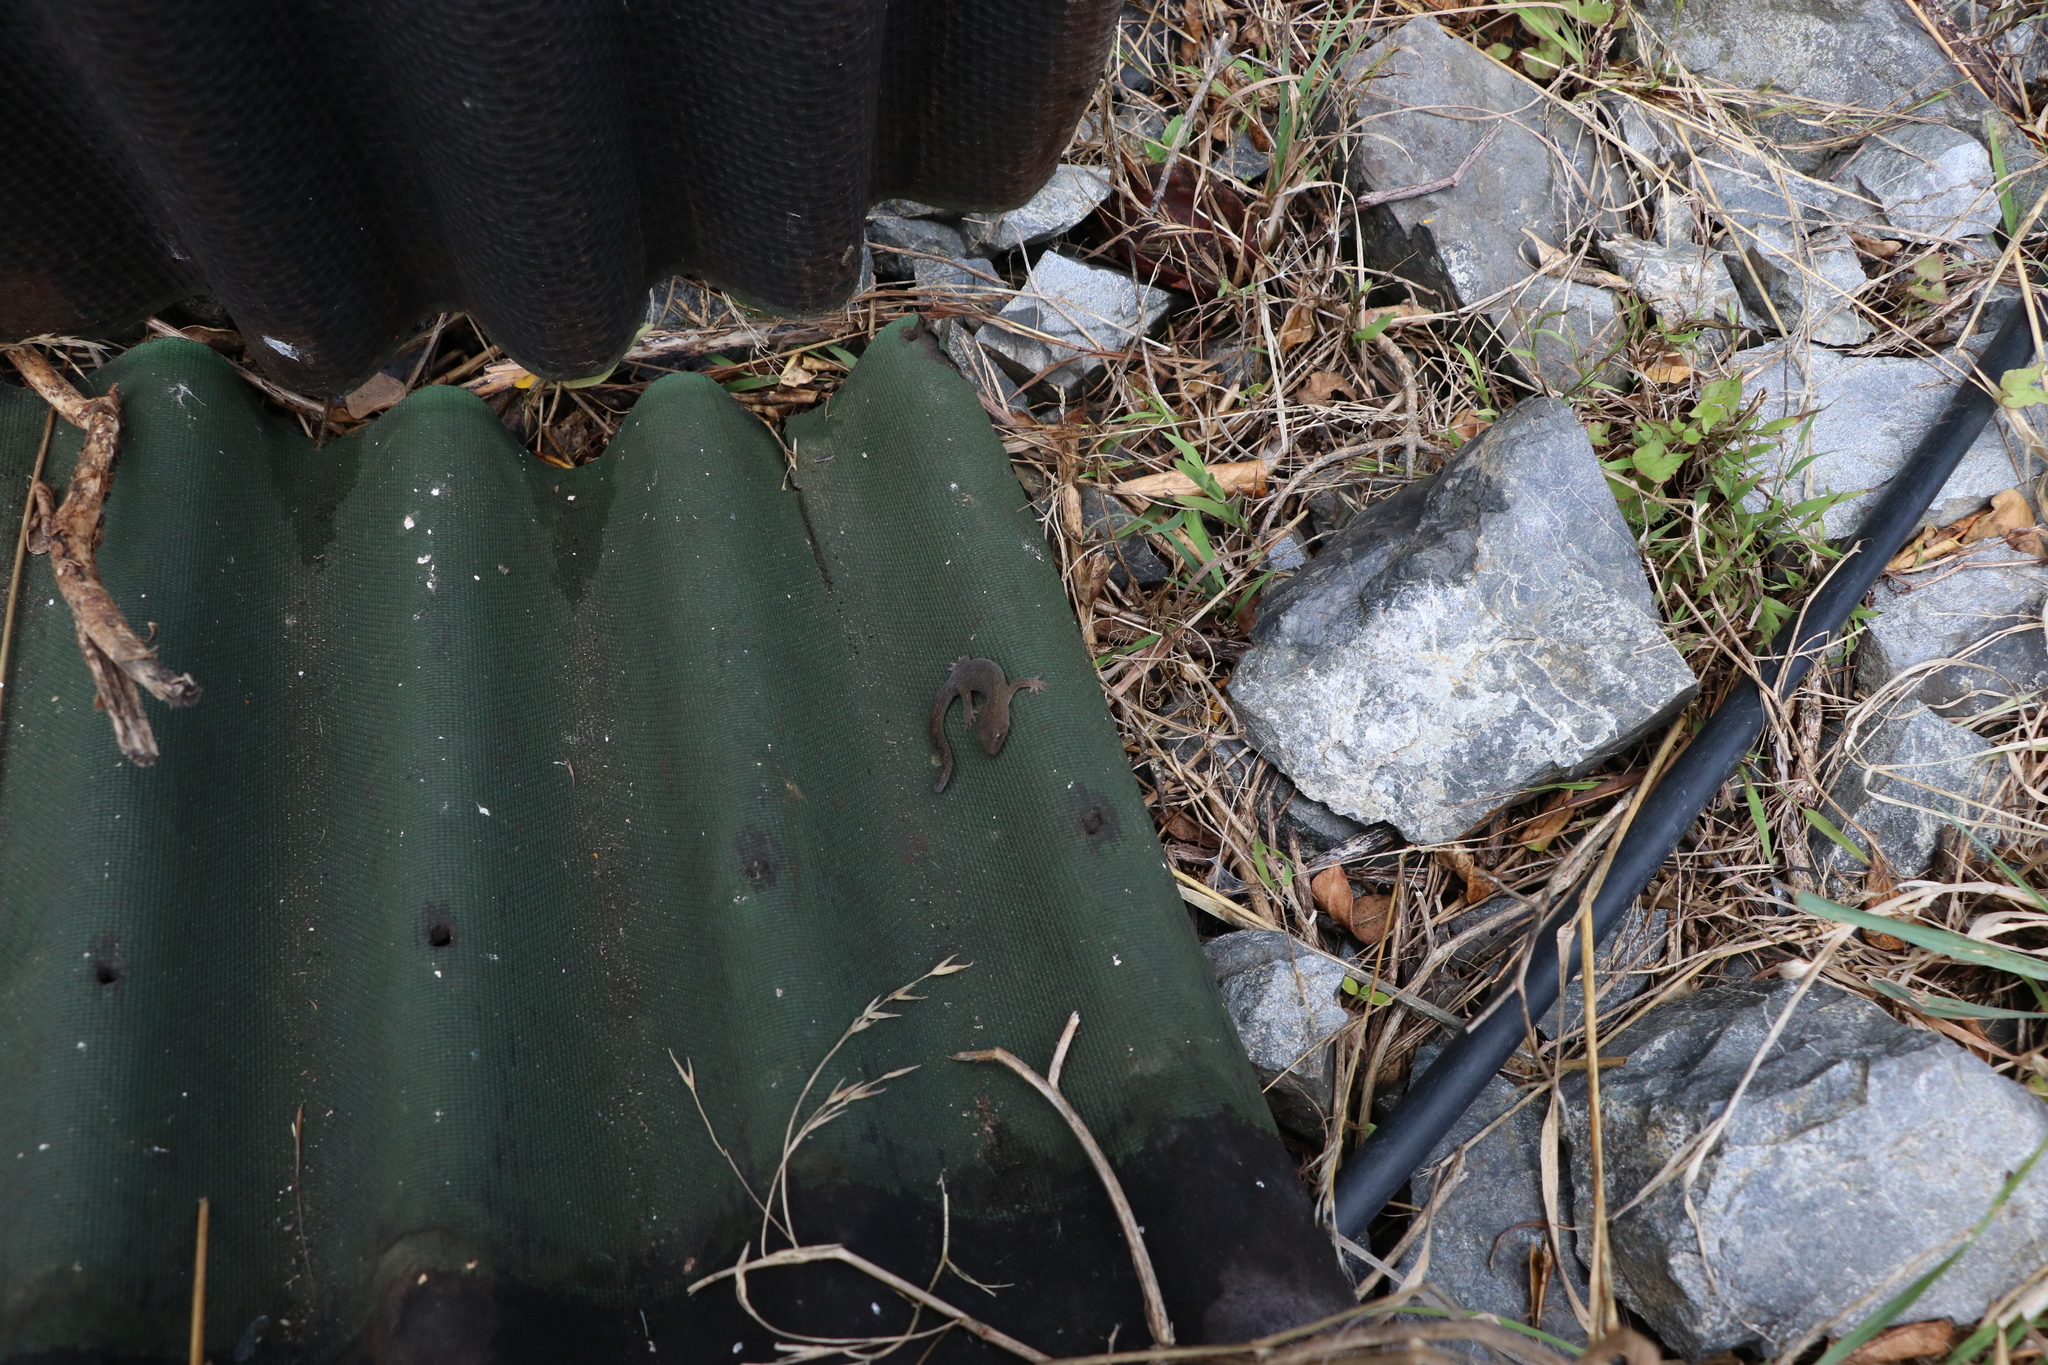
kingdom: Animalia
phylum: Chordata
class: Squamata
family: Diplodactylidae
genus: Woodworthia
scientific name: Woodworthia maculata
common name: Raukawa gecko
